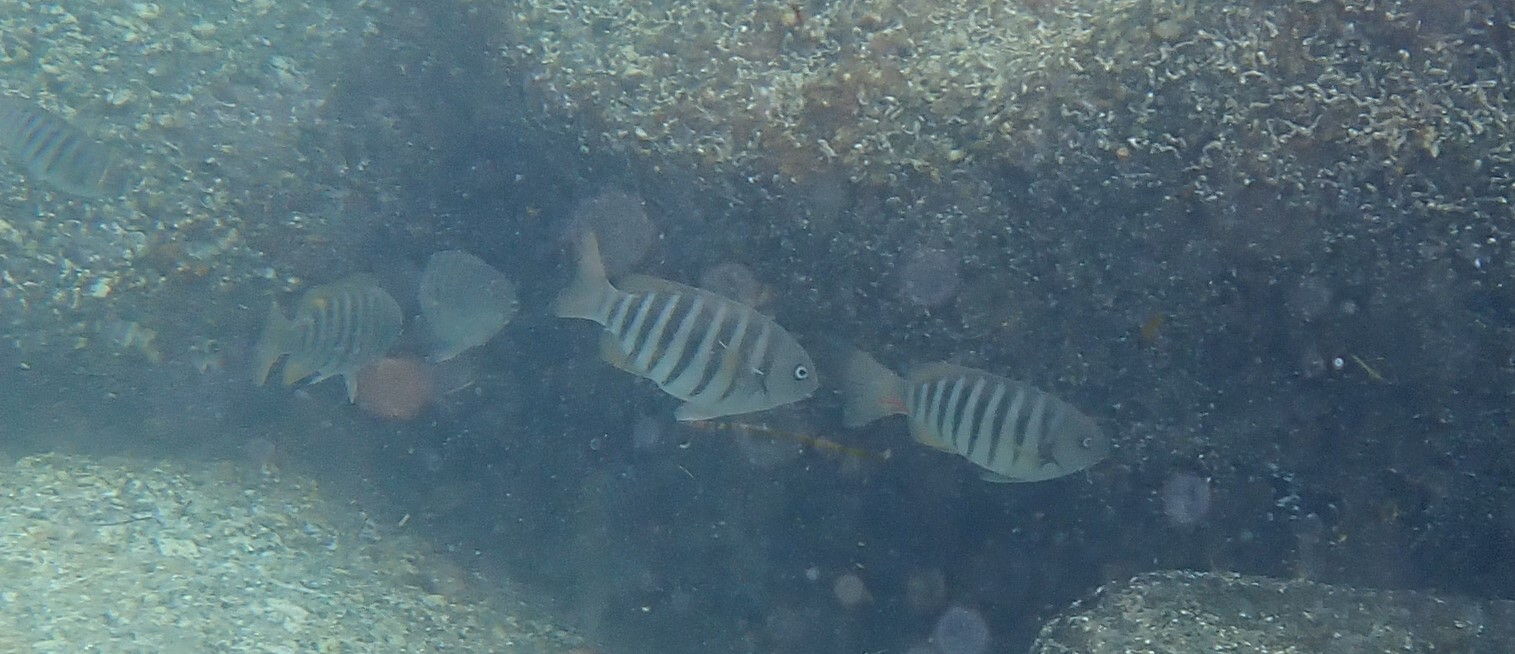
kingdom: Animalia
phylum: Chordata
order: Perciformes
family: Kyphosidae
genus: Girella
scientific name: Girella zebra
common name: Stripey bream
